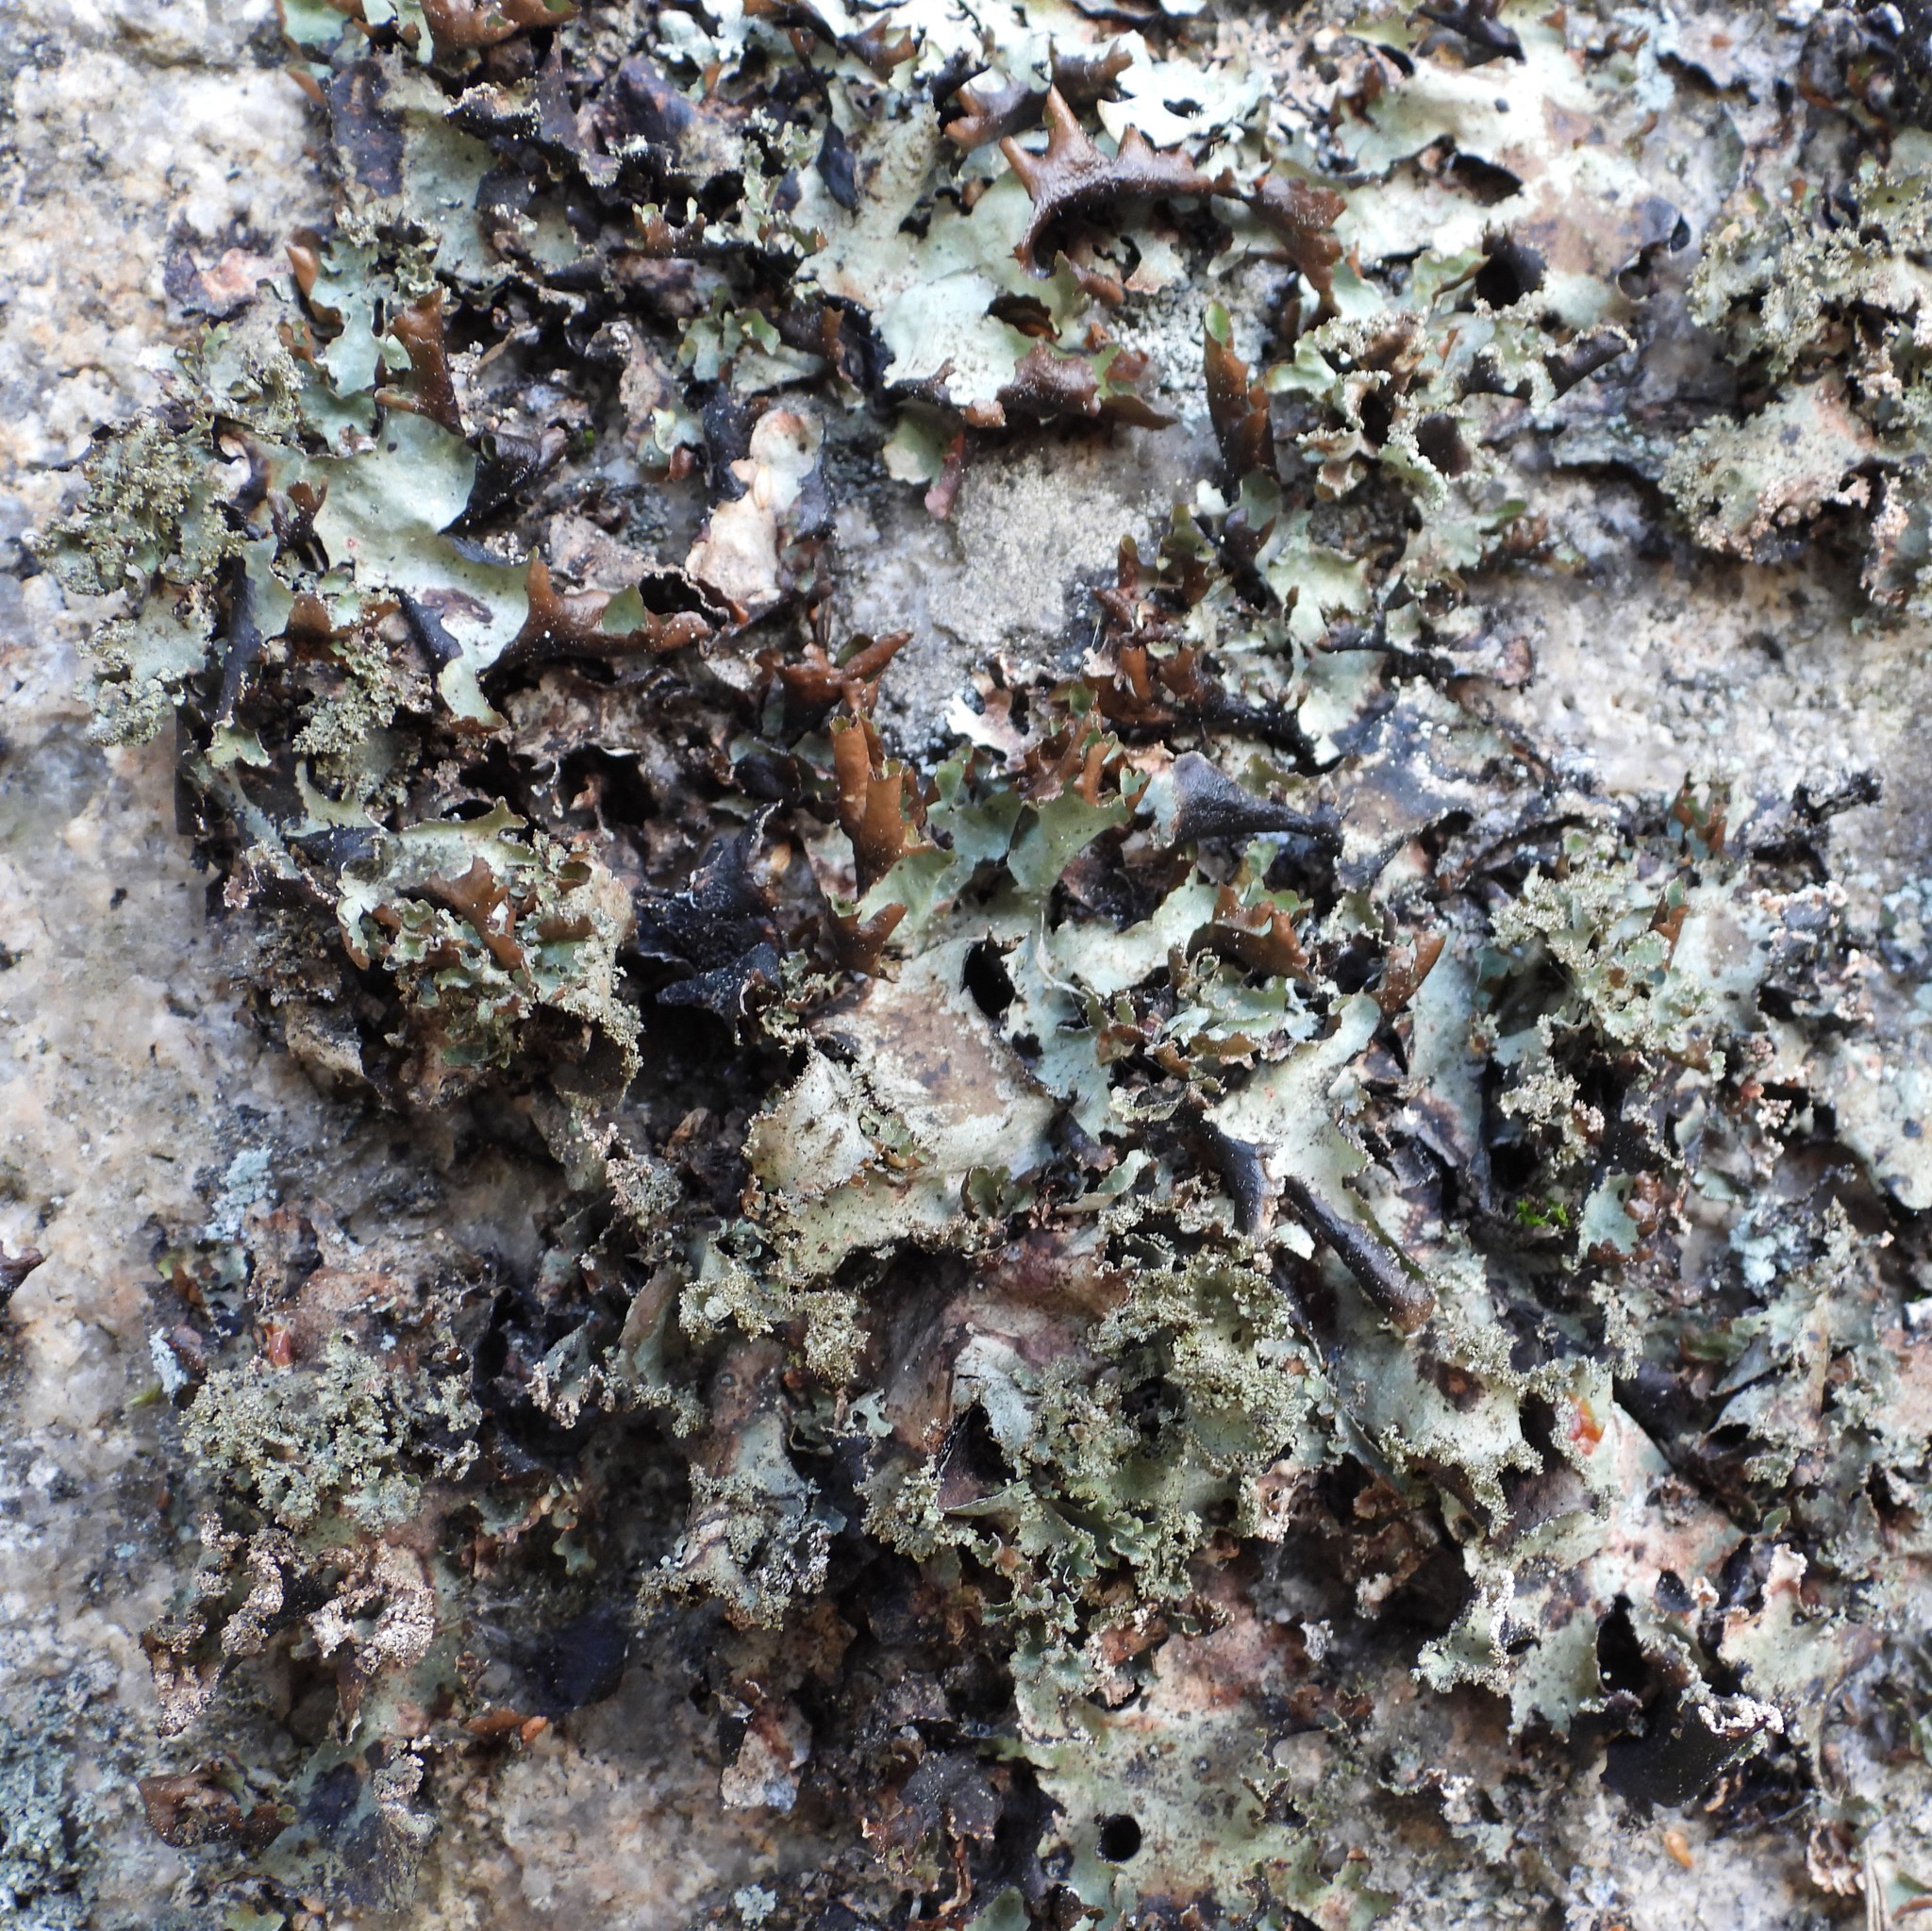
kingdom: Fungi
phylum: Ascomycota
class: Lecanoromycetes
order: Lecanorales
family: Parmeliaceae
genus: Platismatia
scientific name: Platismatia glauca
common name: Varied rag lichen
